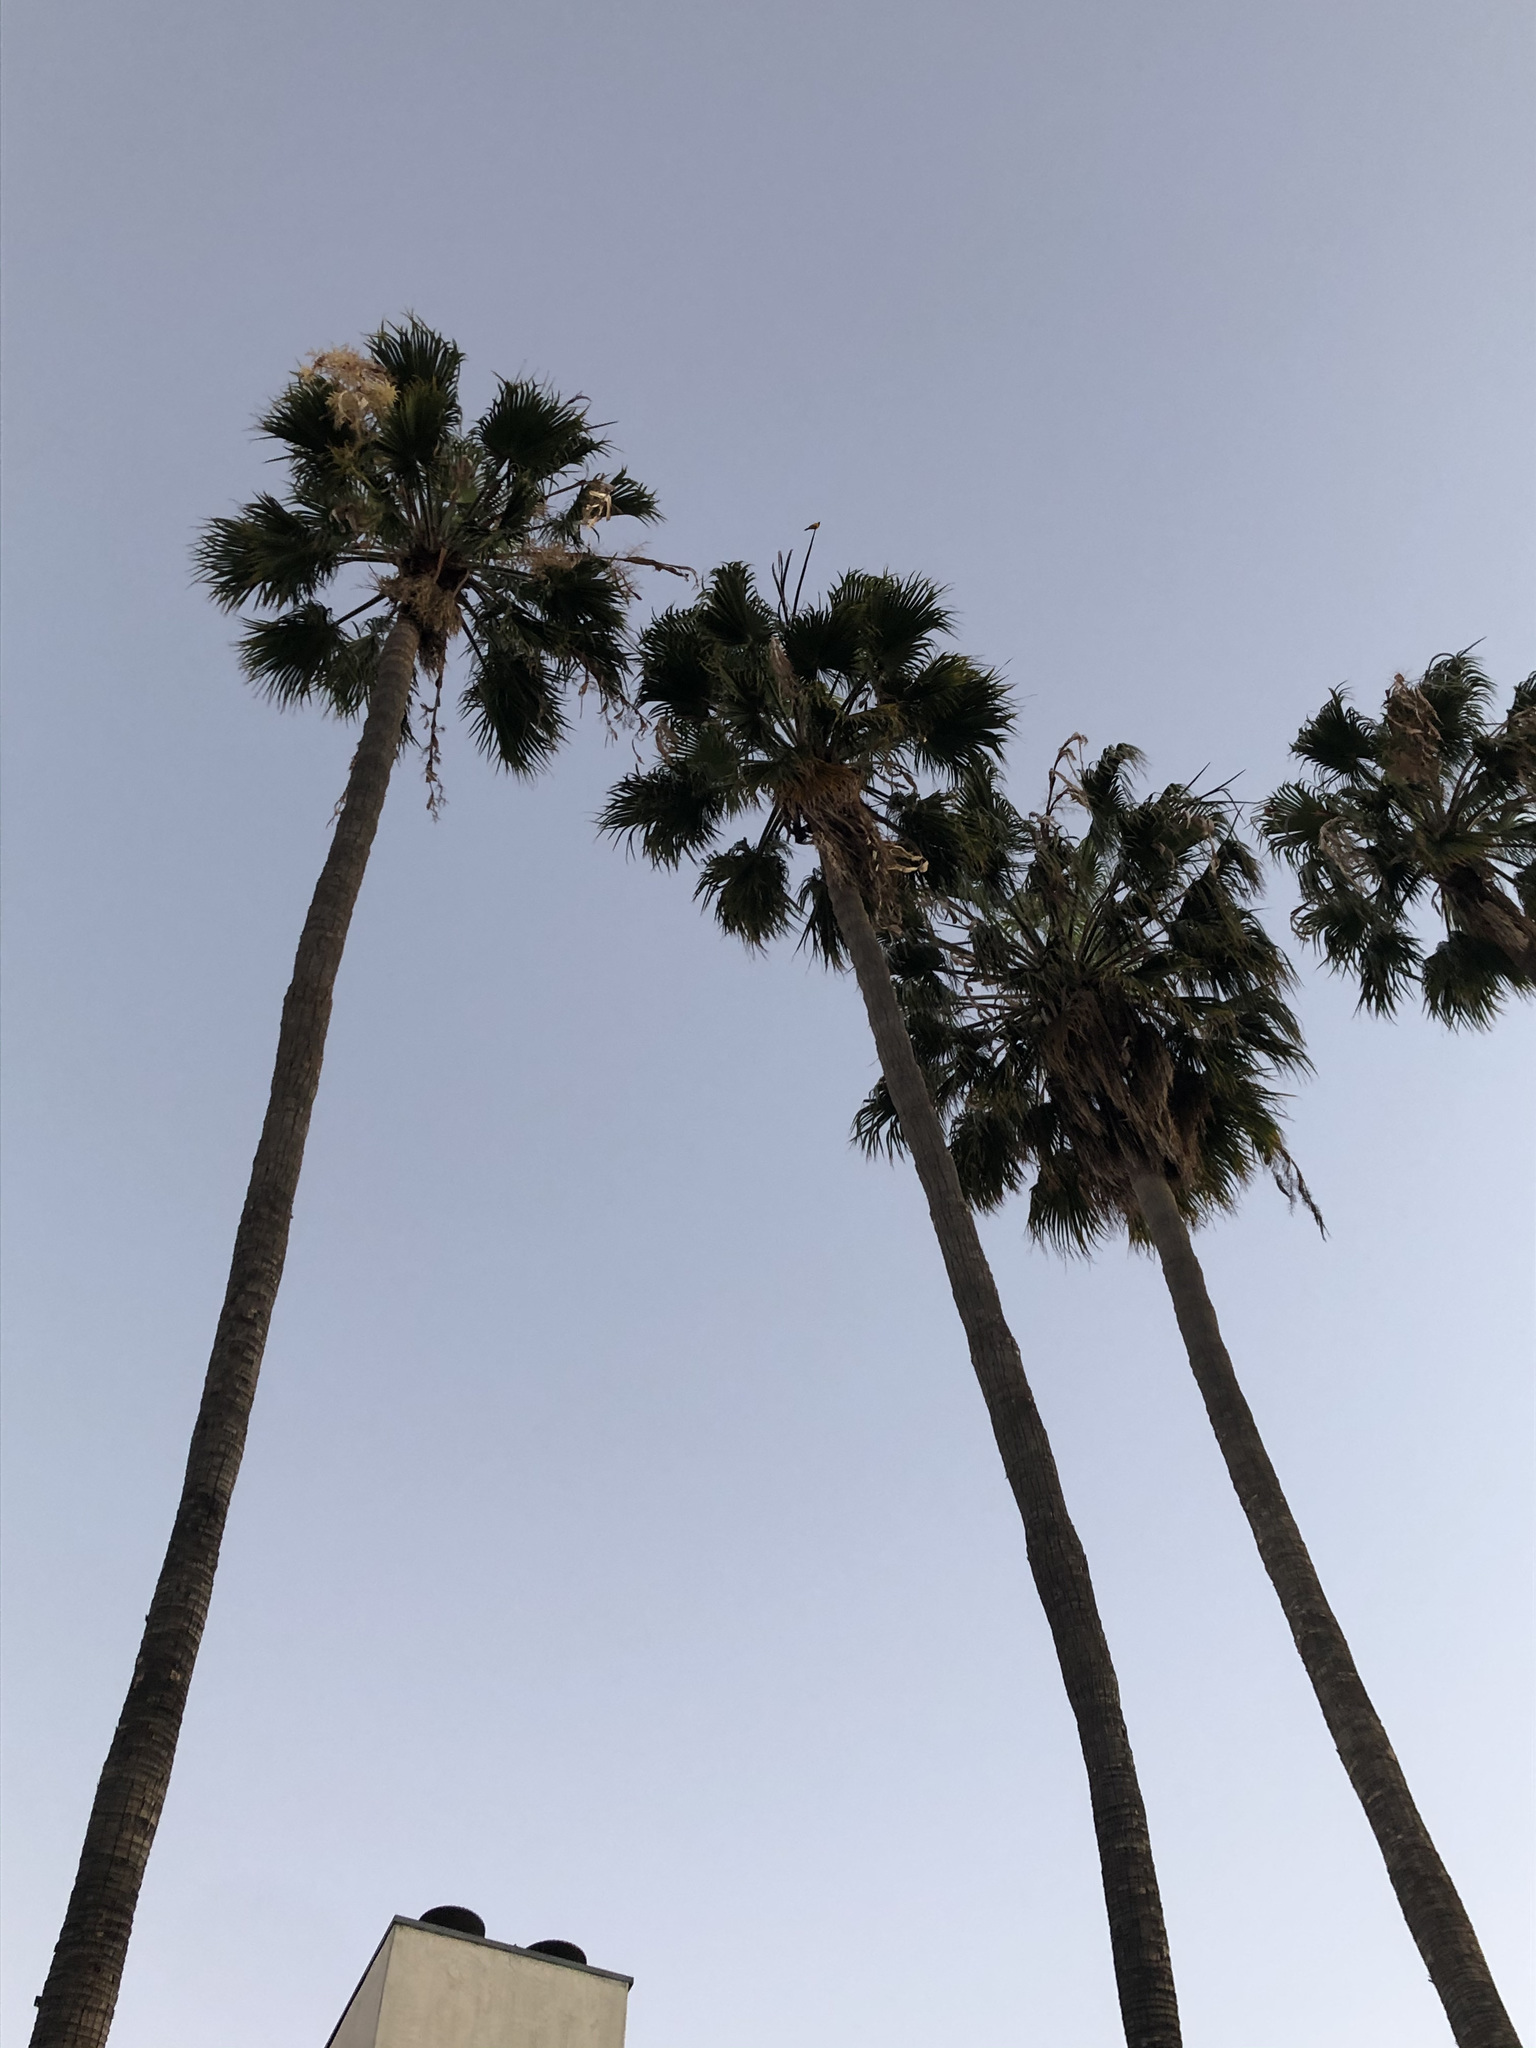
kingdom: Plantae
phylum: Tracheophyta
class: Liliopsida
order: Arecales
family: Arecaceae
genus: Washingtonia
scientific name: Washingtonia robusta
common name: Mexican fan palm
